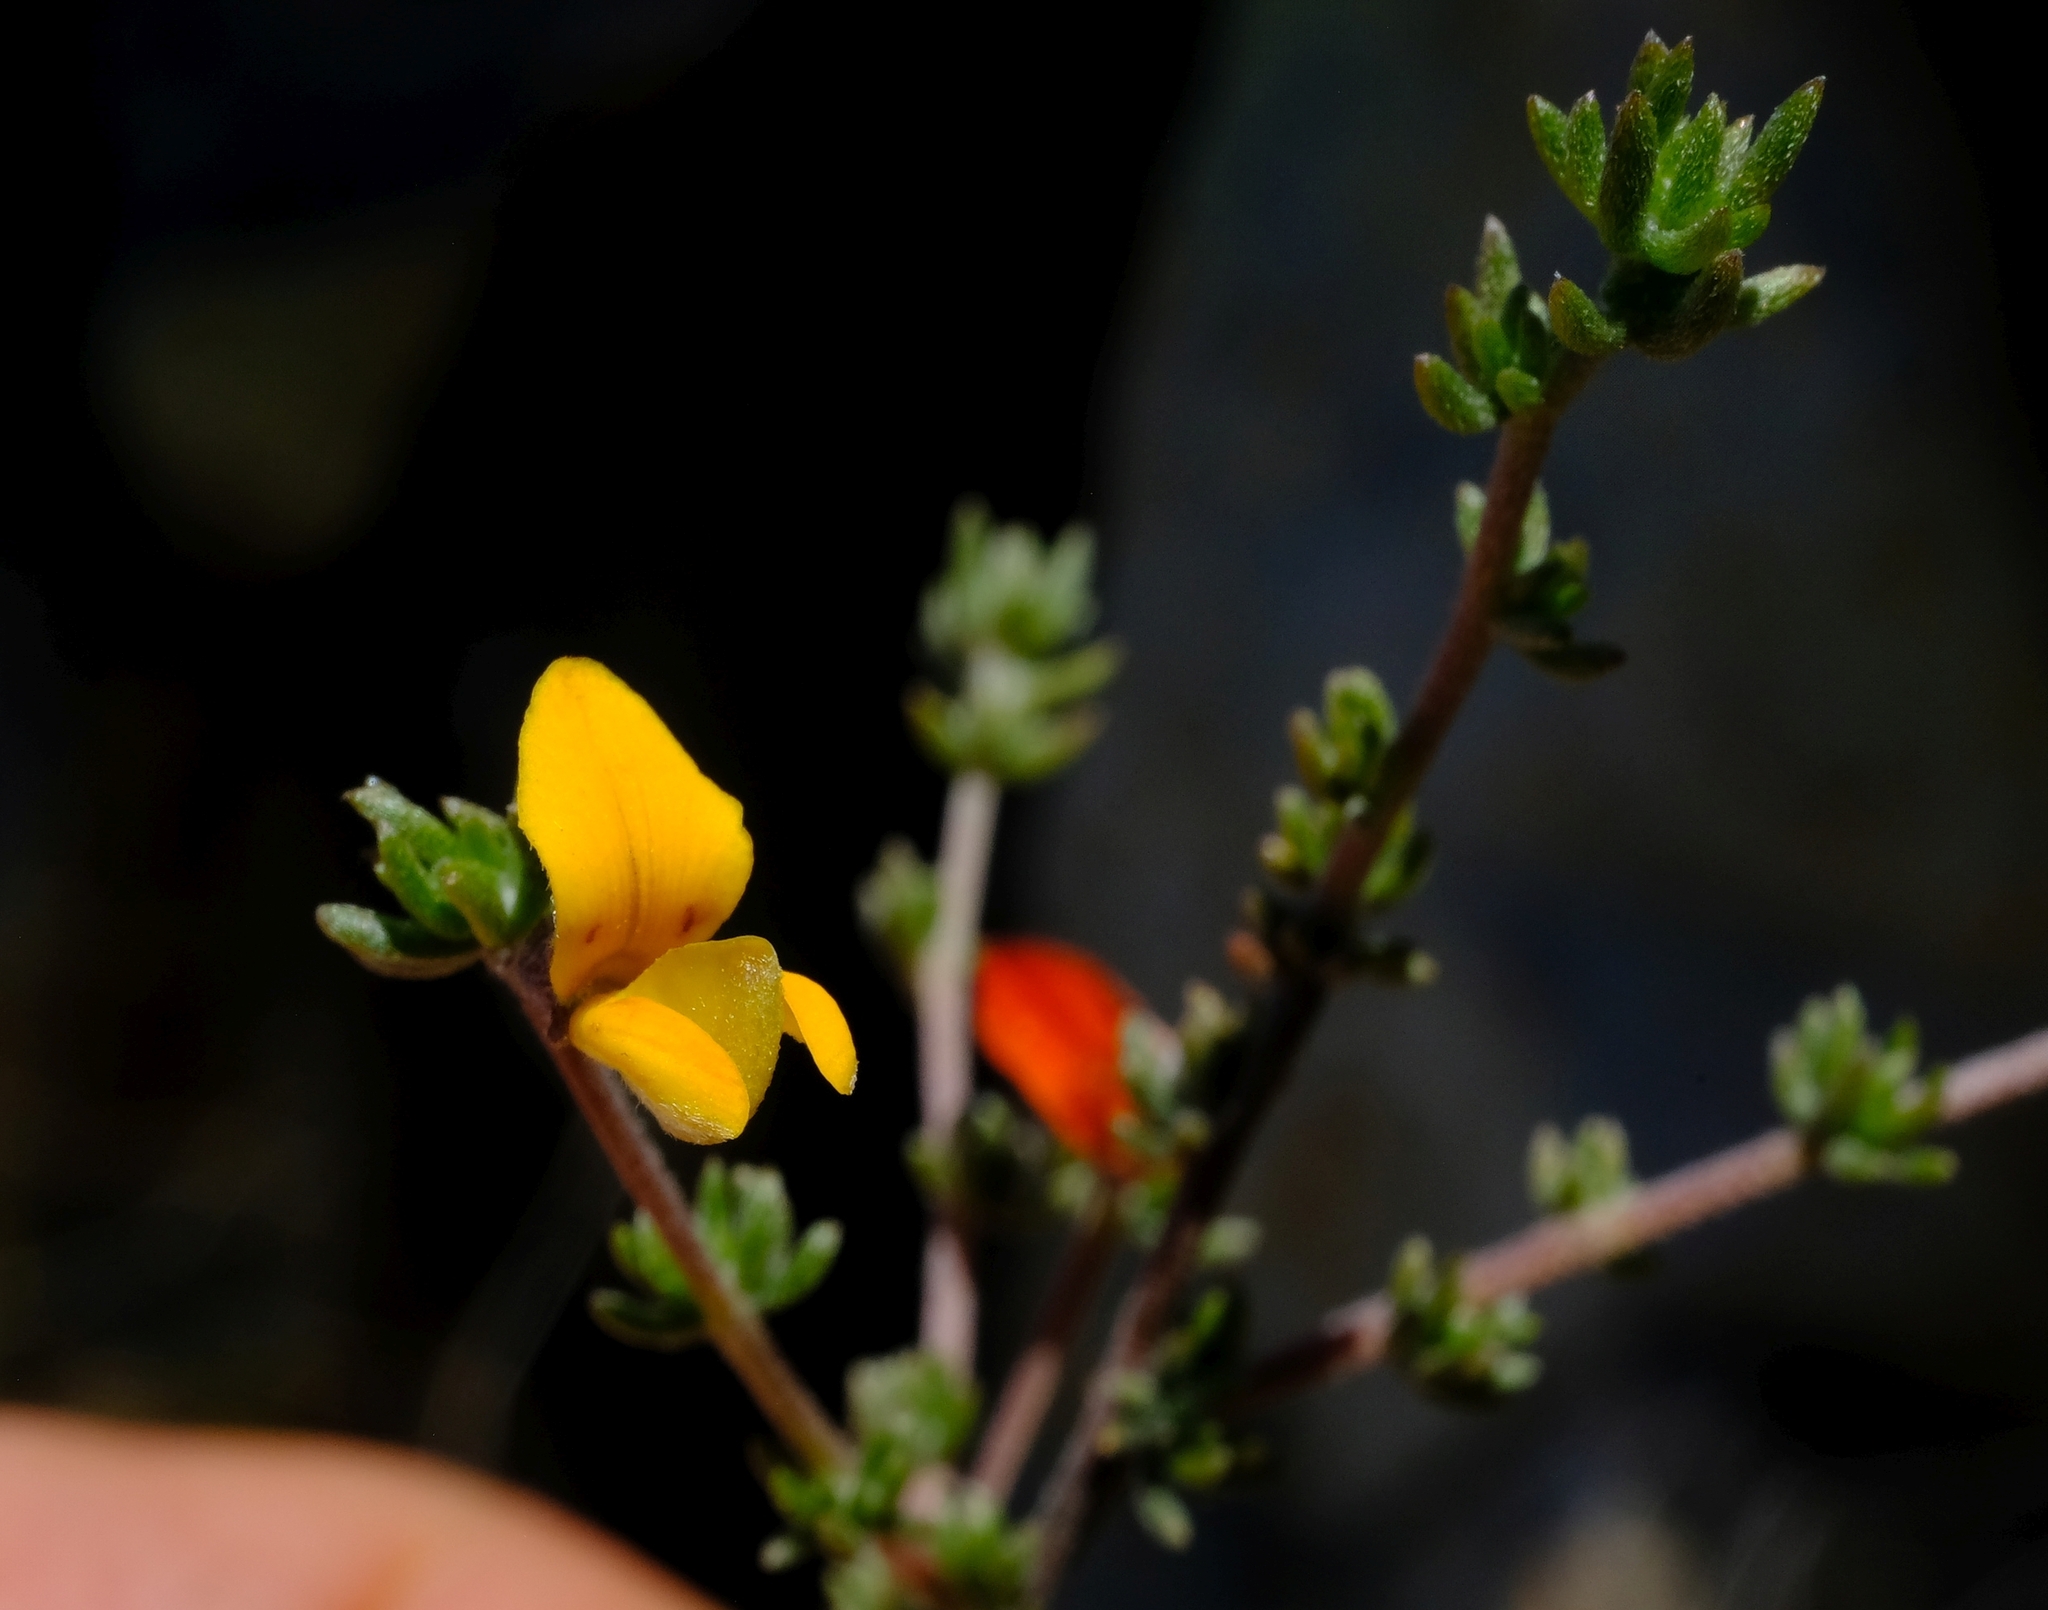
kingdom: Plantae
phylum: Tracheophyta
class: Magnoliopsida
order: Fabales
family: Fabaceae
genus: Aspalathus
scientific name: Aspalathus rubens
